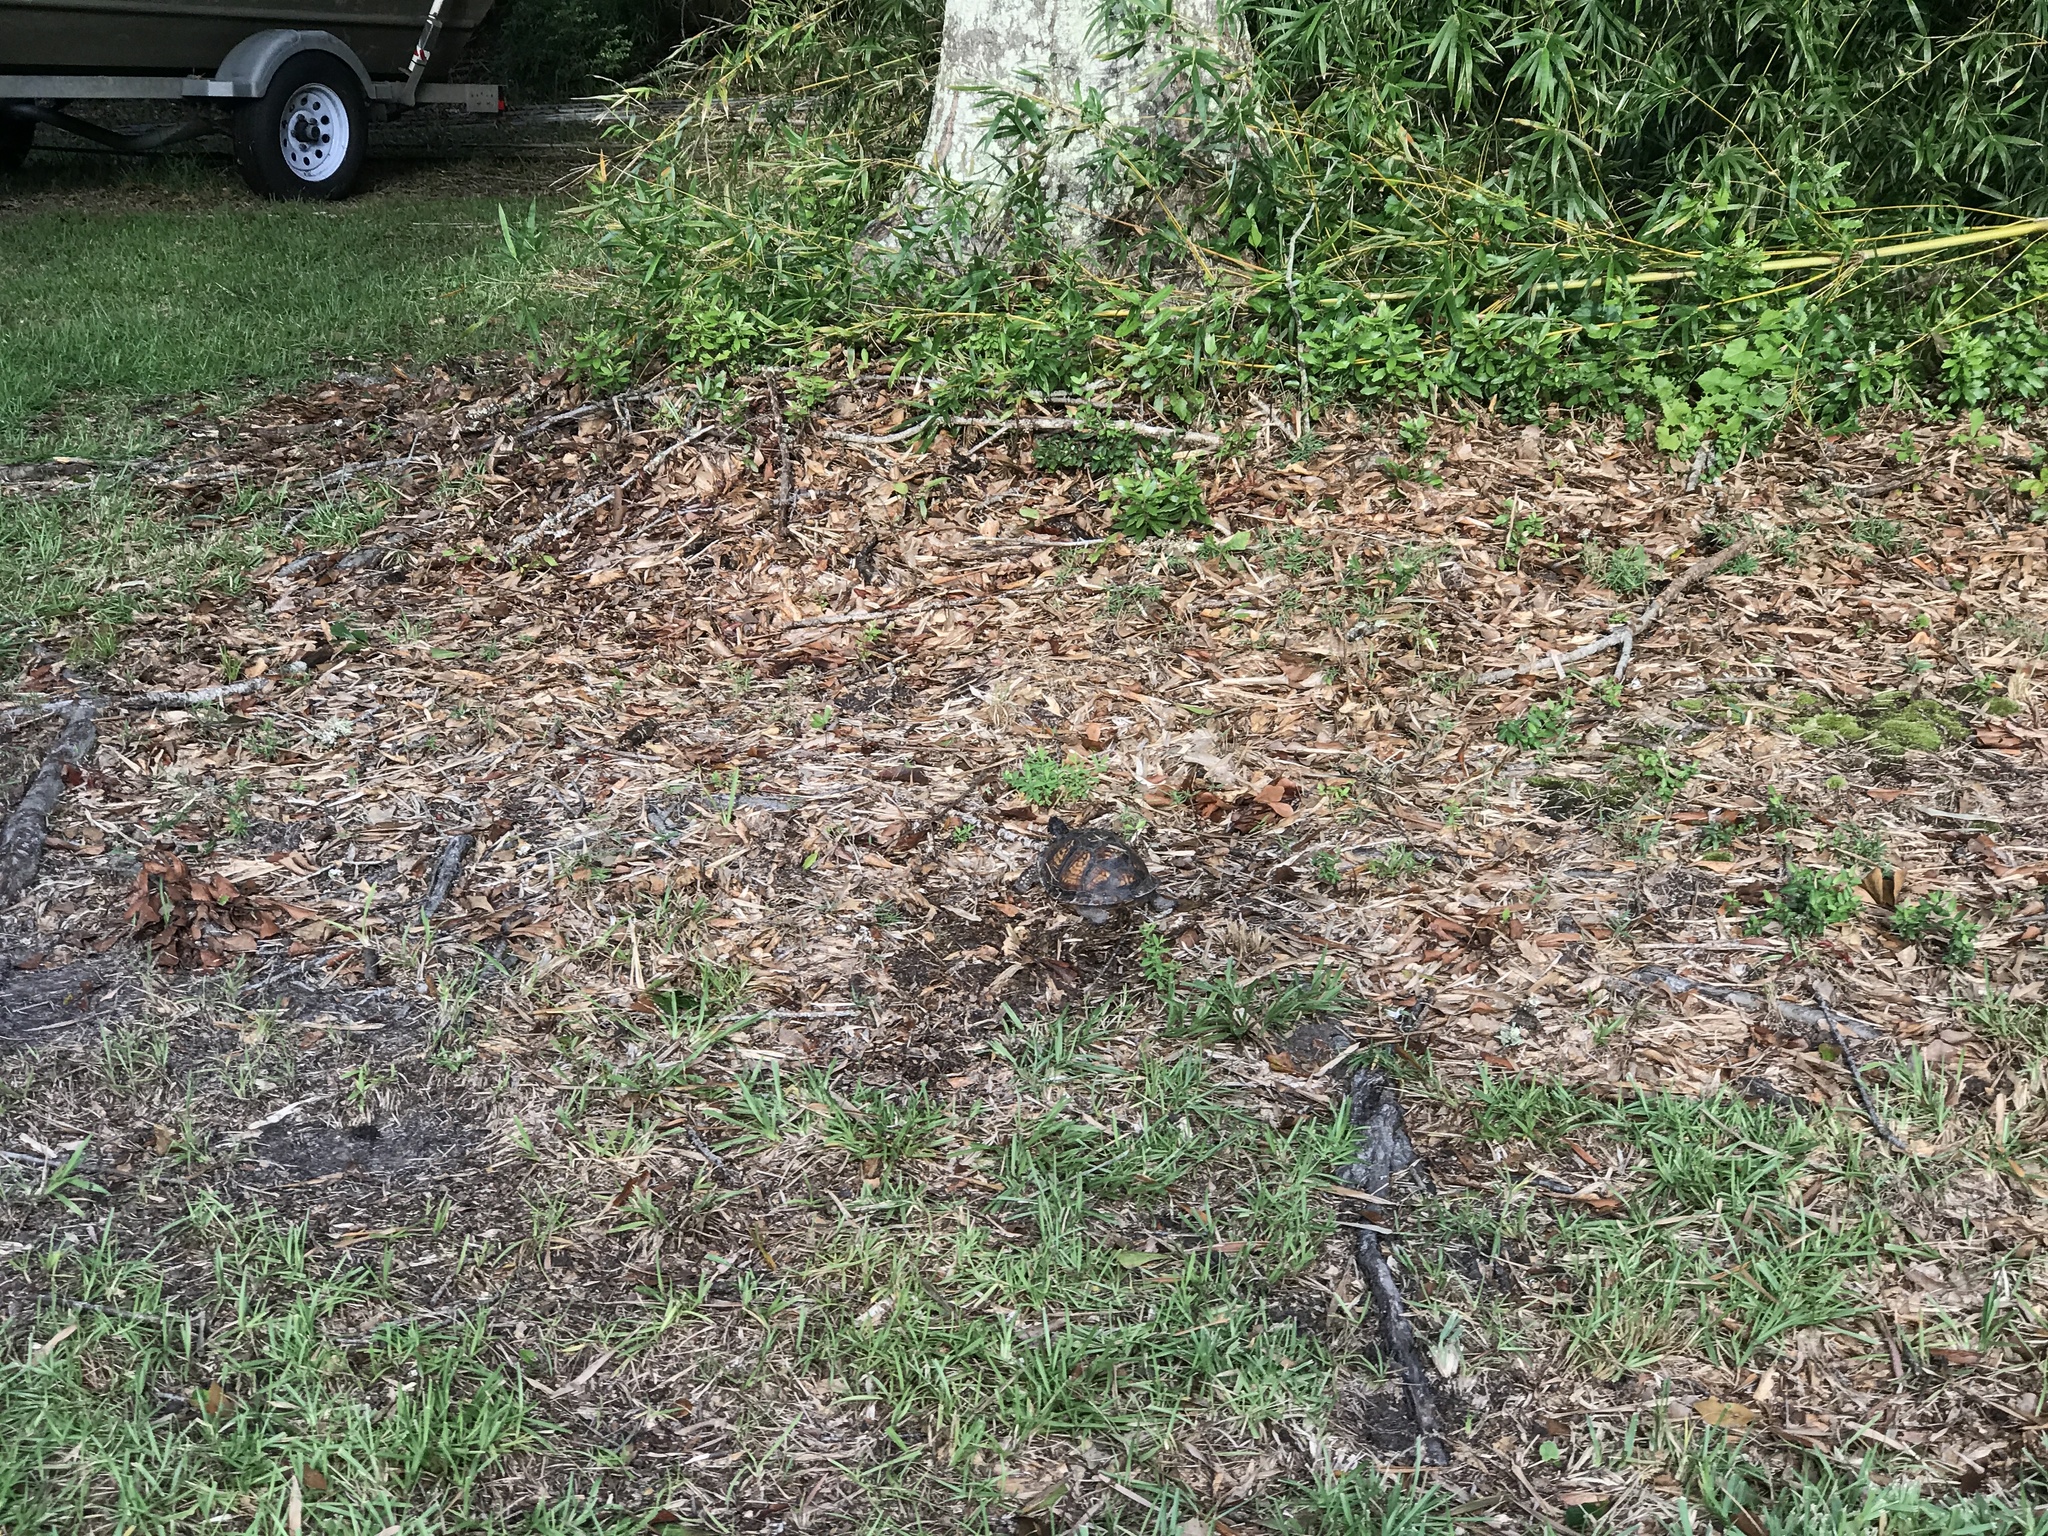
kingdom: Animalia
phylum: Chordata
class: Testudines
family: Emydidae
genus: Terrapene
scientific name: Terrapene carolina
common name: Common box turtle
